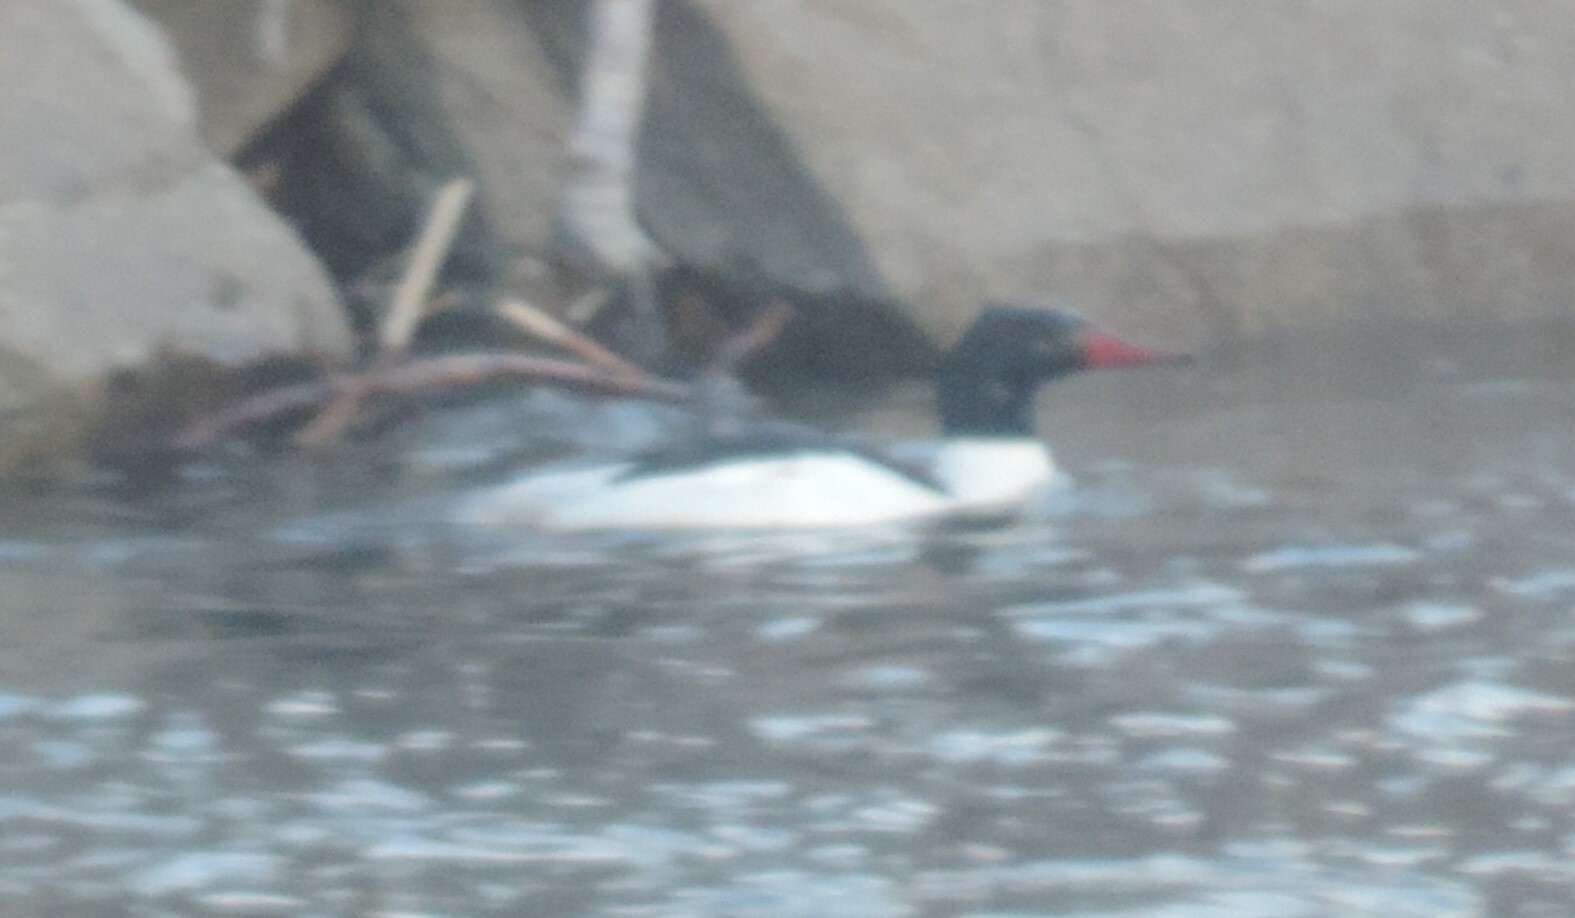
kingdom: Animalia
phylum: Chordata
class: Aves
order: Anseriformes
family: Anatidae
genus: Mergus
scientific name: Mergus merganser
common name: Common merganser
